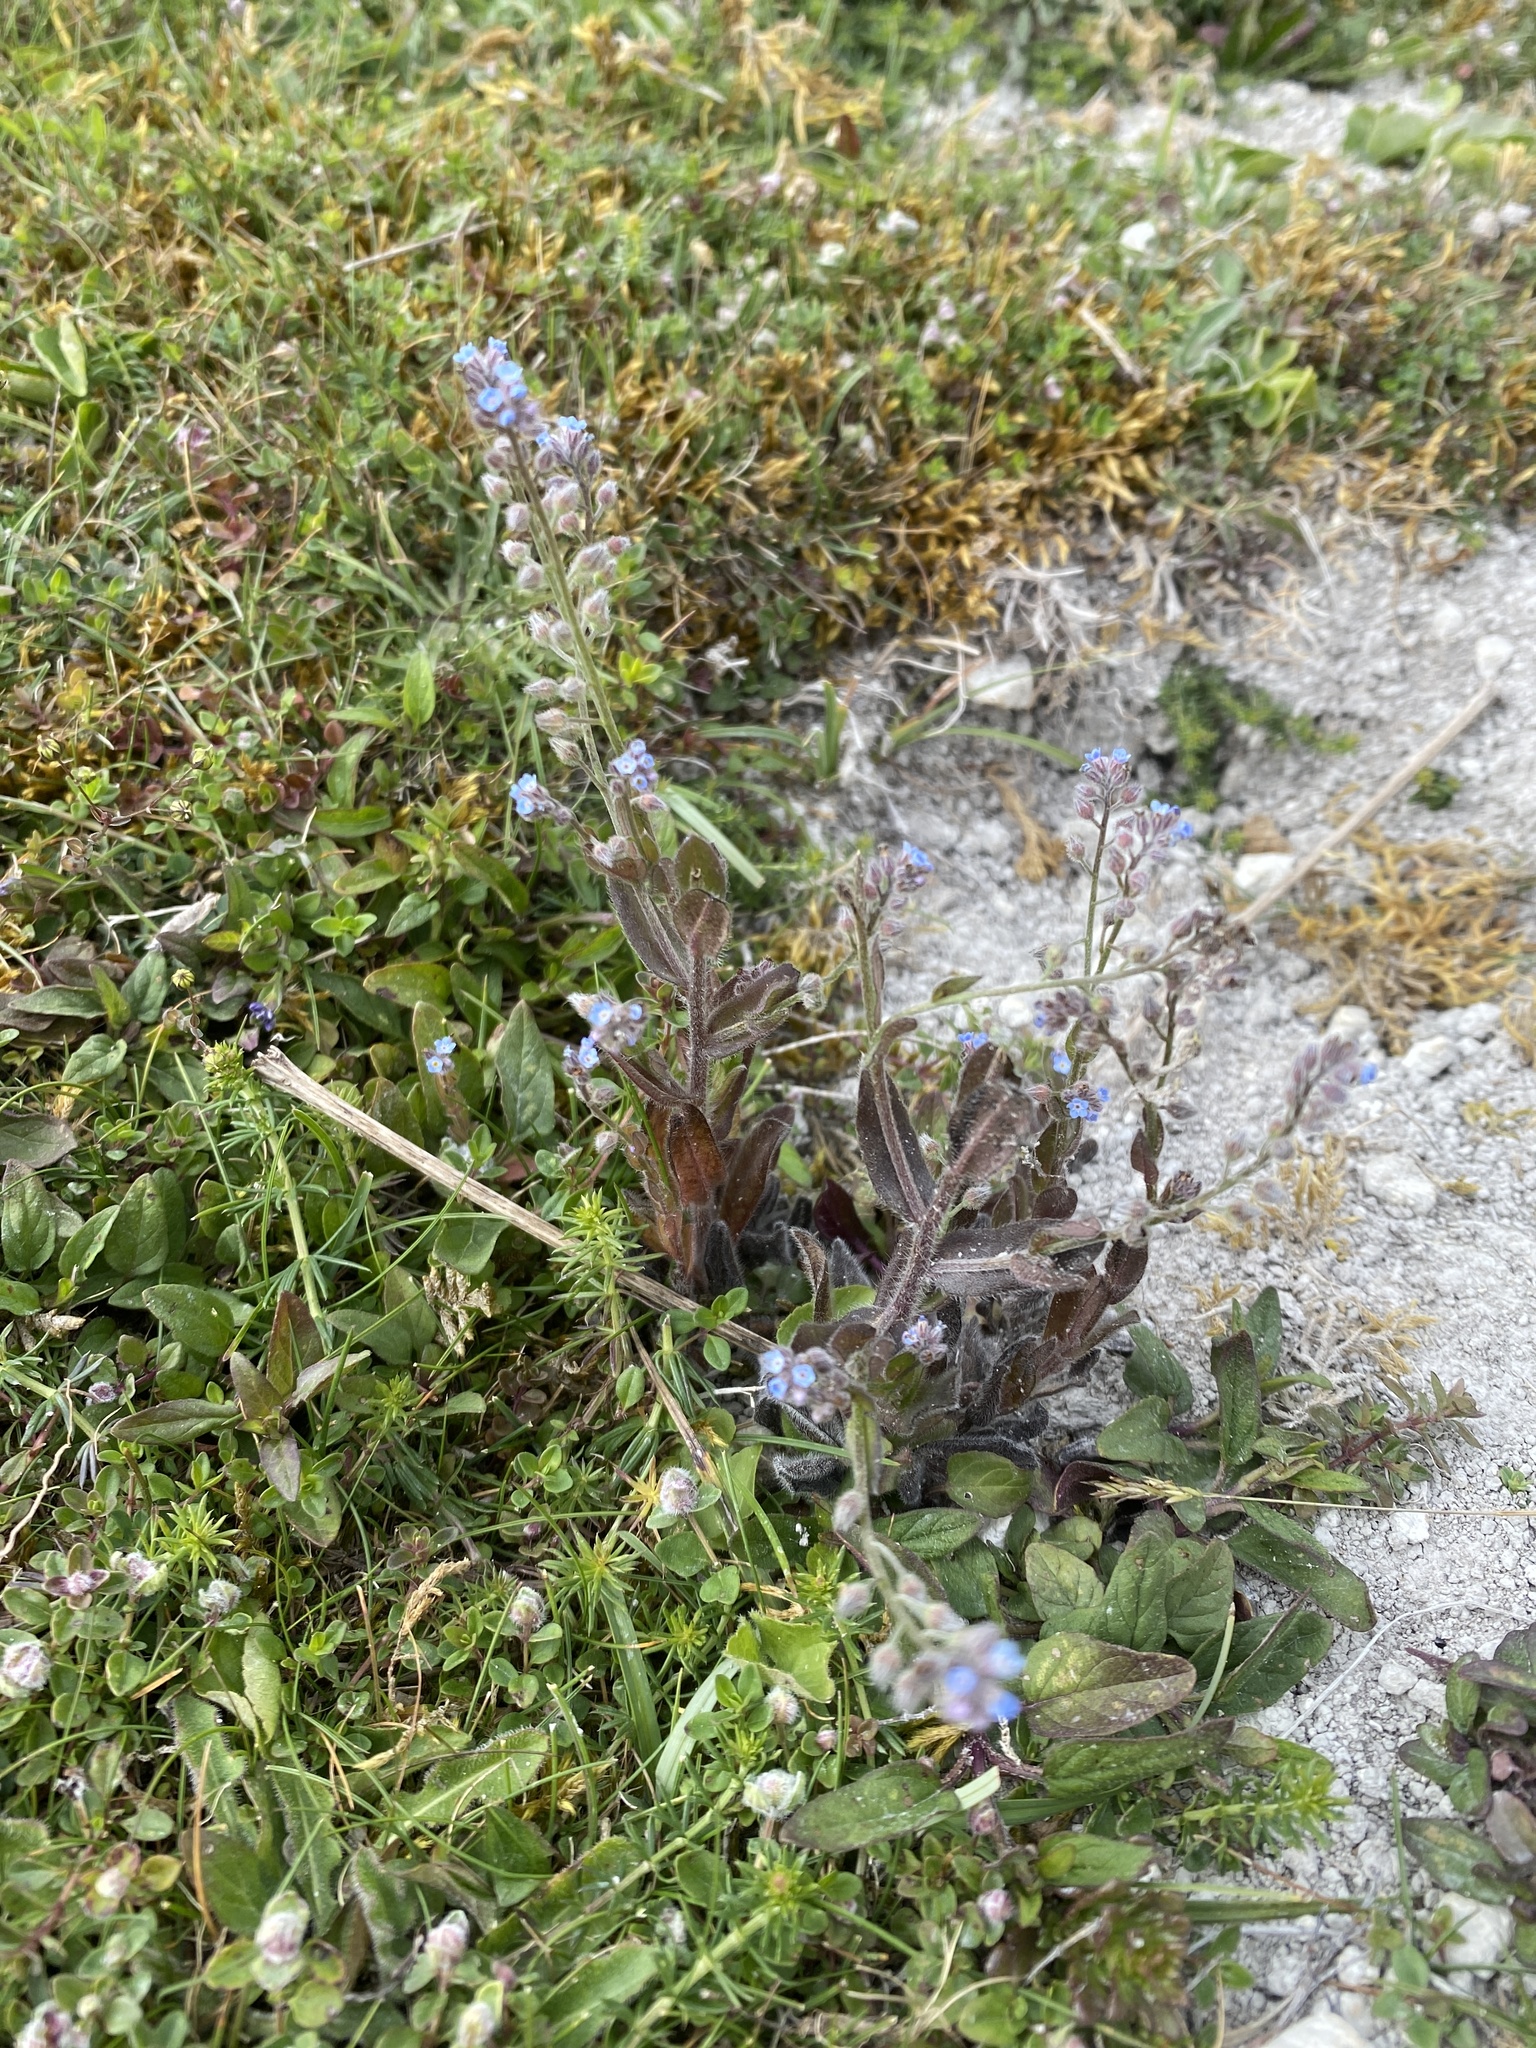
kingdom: Plantae
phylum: Tracheophyta
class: Magnoliopsida
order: Boraginales
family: Boraginaceae
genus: Myosotis
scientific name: Myosotis arvensis
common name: Field forget-me-not
